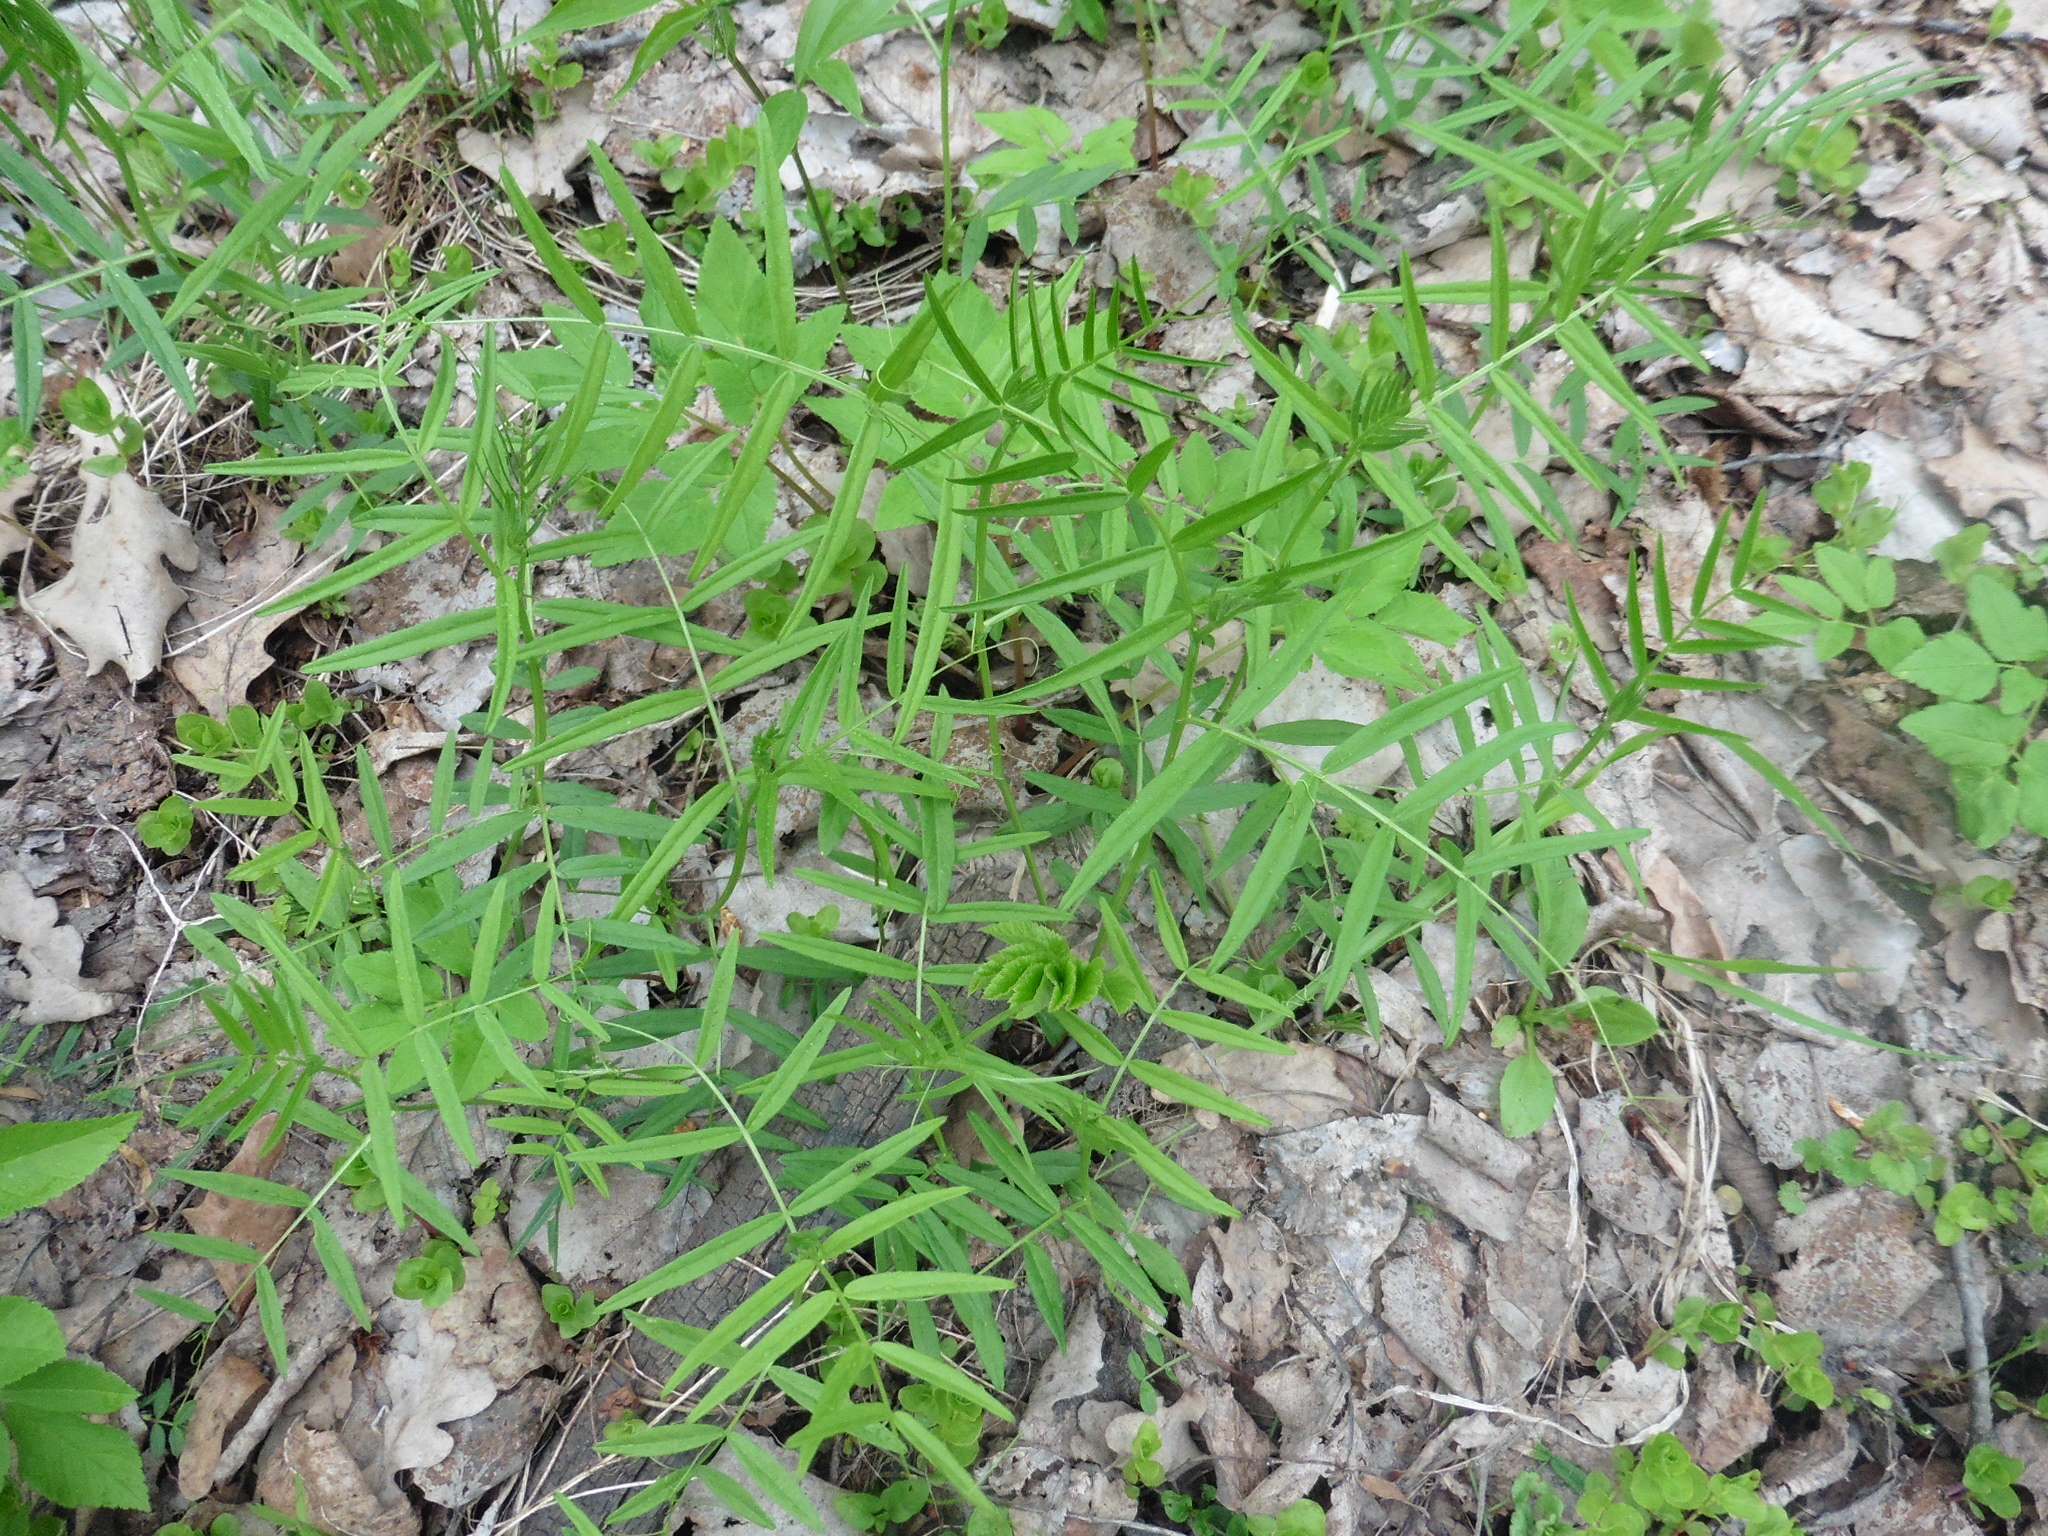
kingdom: Plantae
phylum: Tracheophyta
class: Magnoliopsida
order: Fabales
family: Fabaceae
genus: Vicia
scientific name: Vicia sepium
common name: Bush vetch
